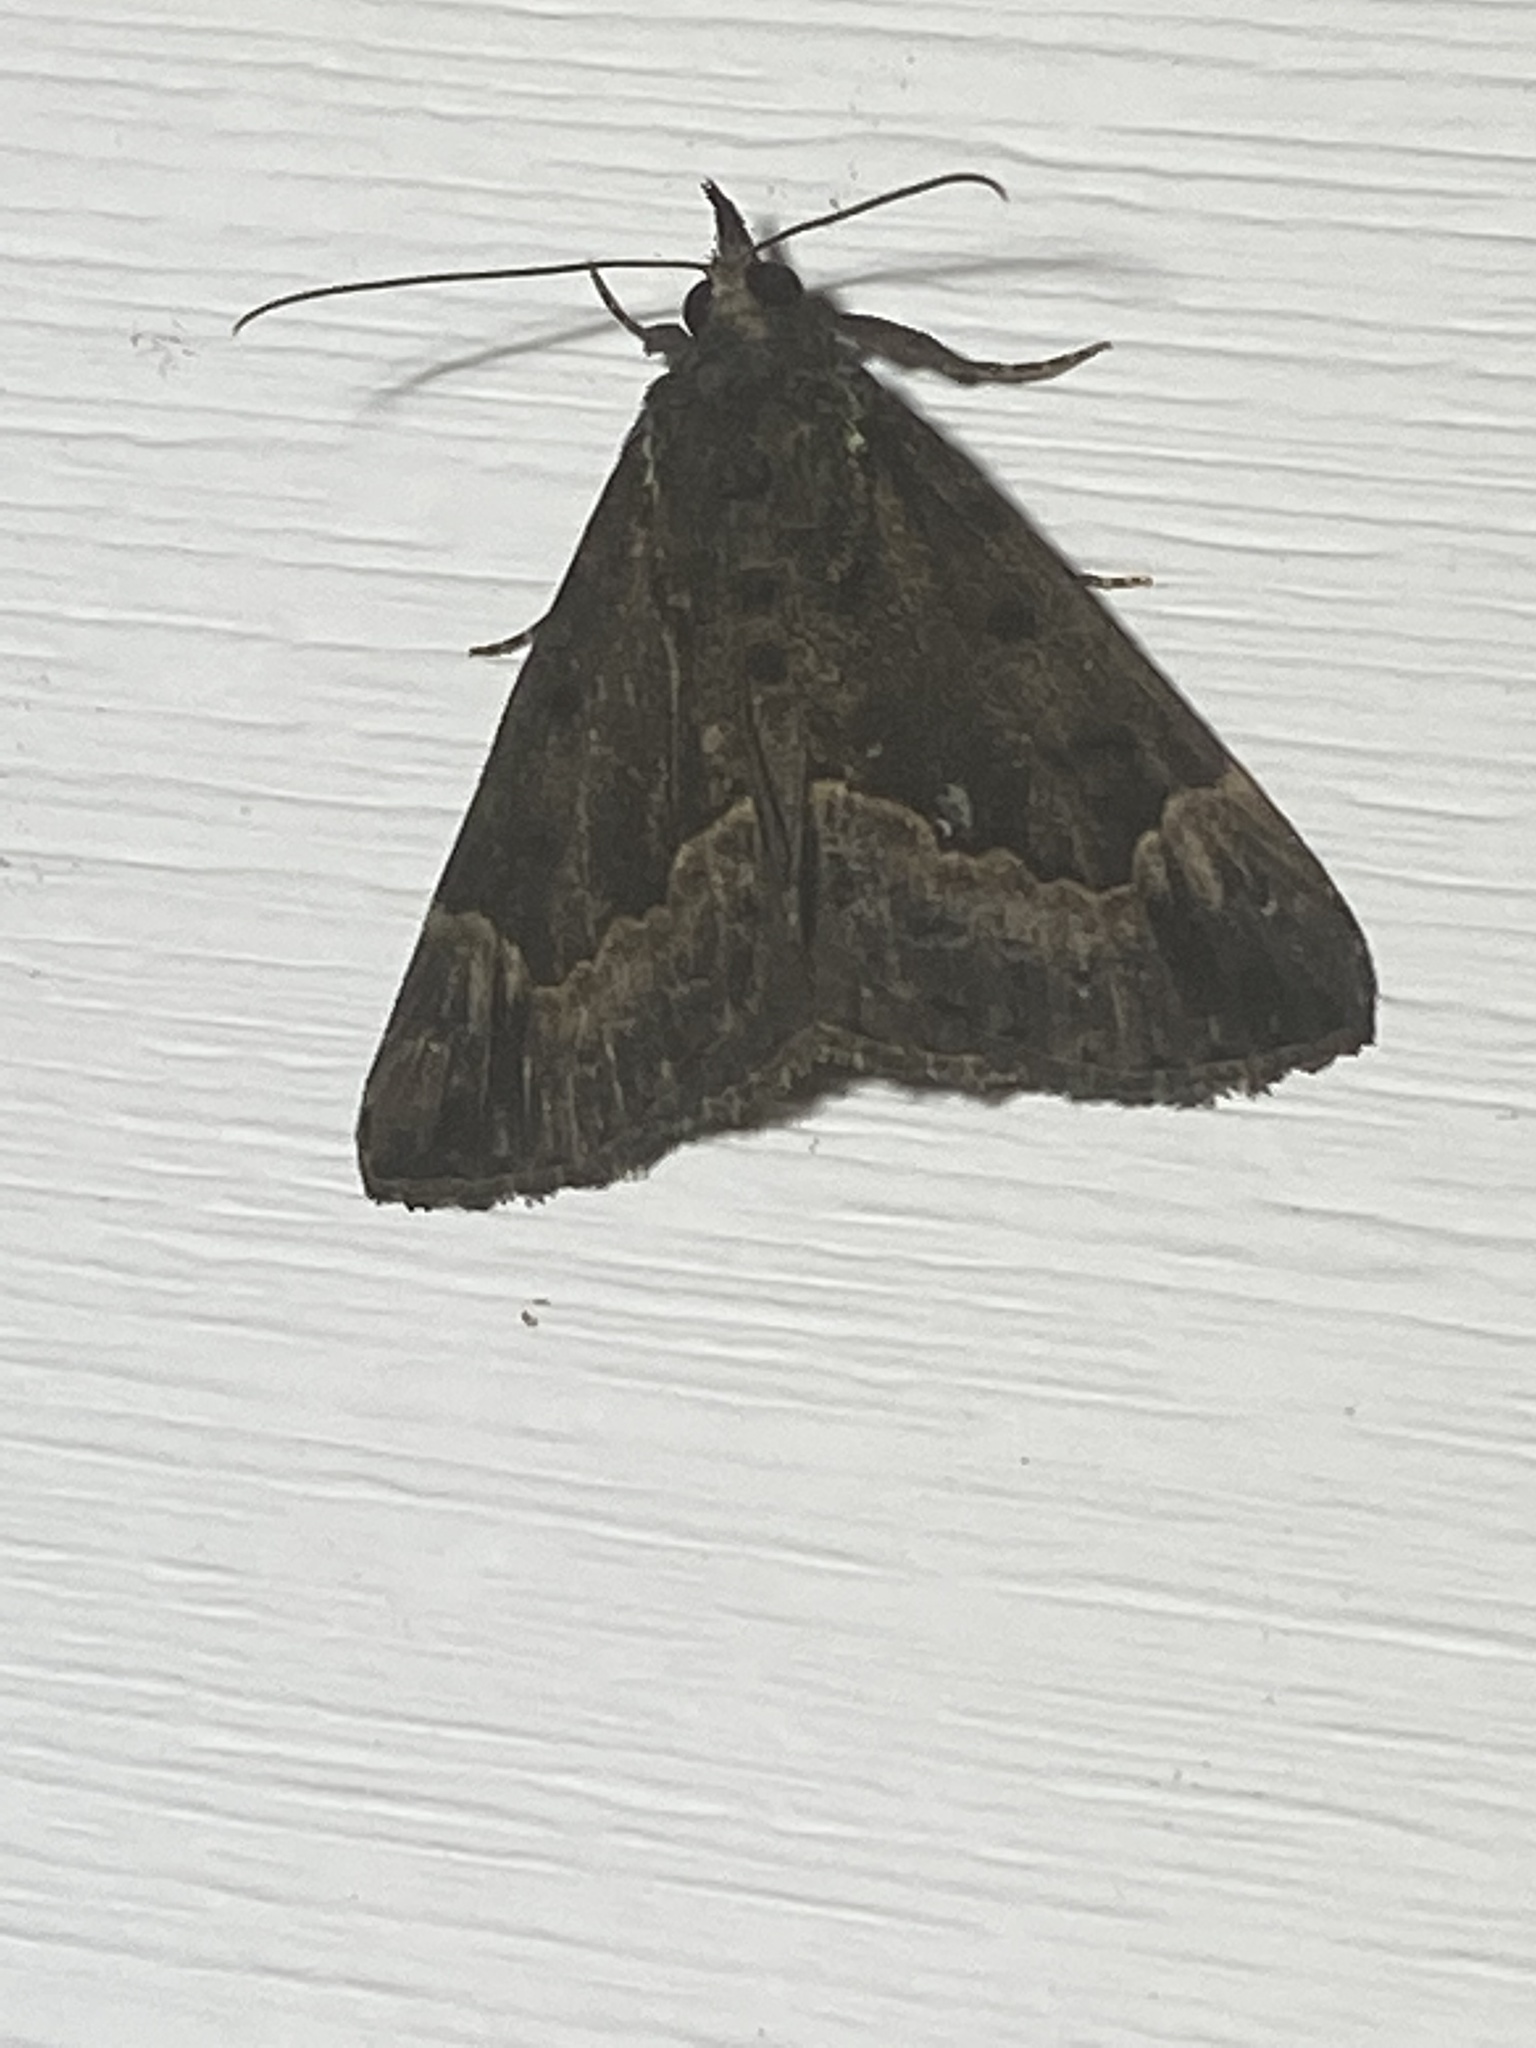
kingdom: Animalia
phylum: Arthropoda
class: Insecta
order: Lepidoptera
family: Erebidae
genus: Hypena
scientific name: Hypena baltimoralis
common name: Baltimore snout
